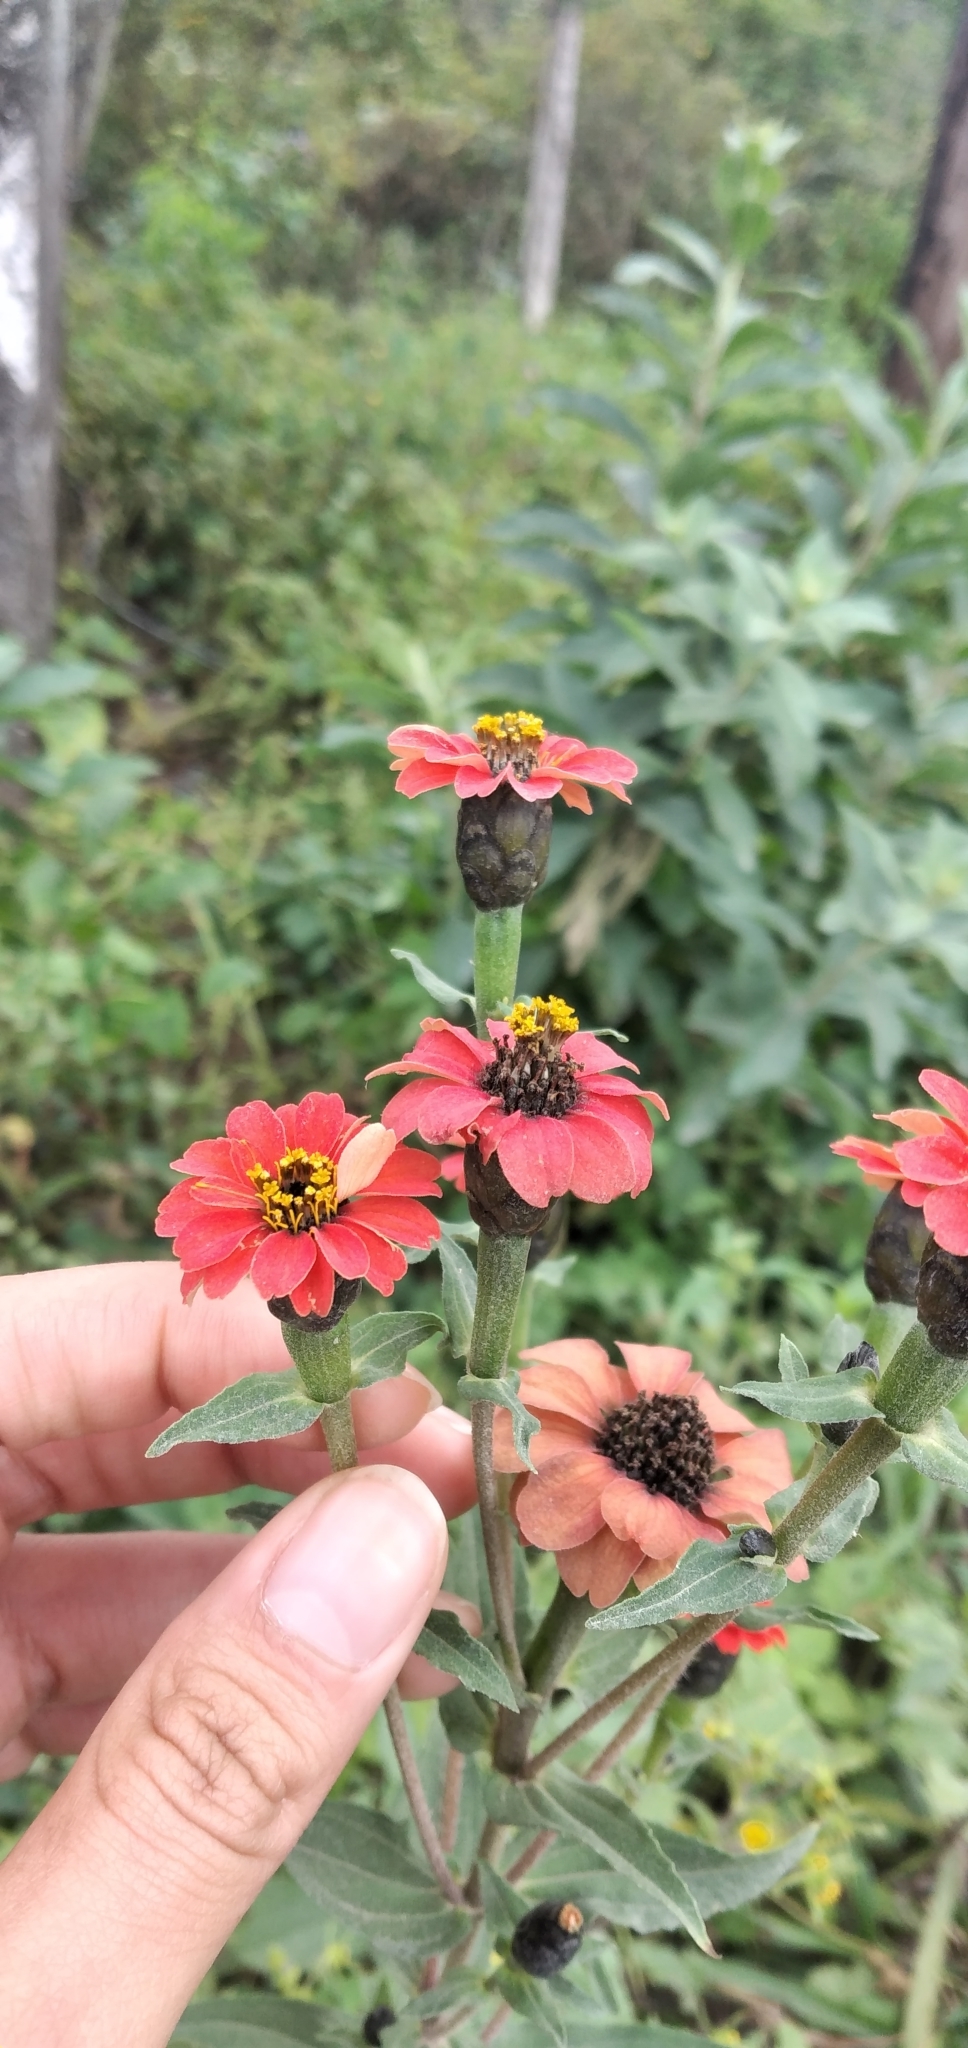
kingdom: Plantae
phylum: Tracheophyta
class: Magnoliopsida
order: Asterales
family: Asteraceae
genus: Zinnia
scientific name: Zinnia peruviana
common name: Peruvian zinnia
